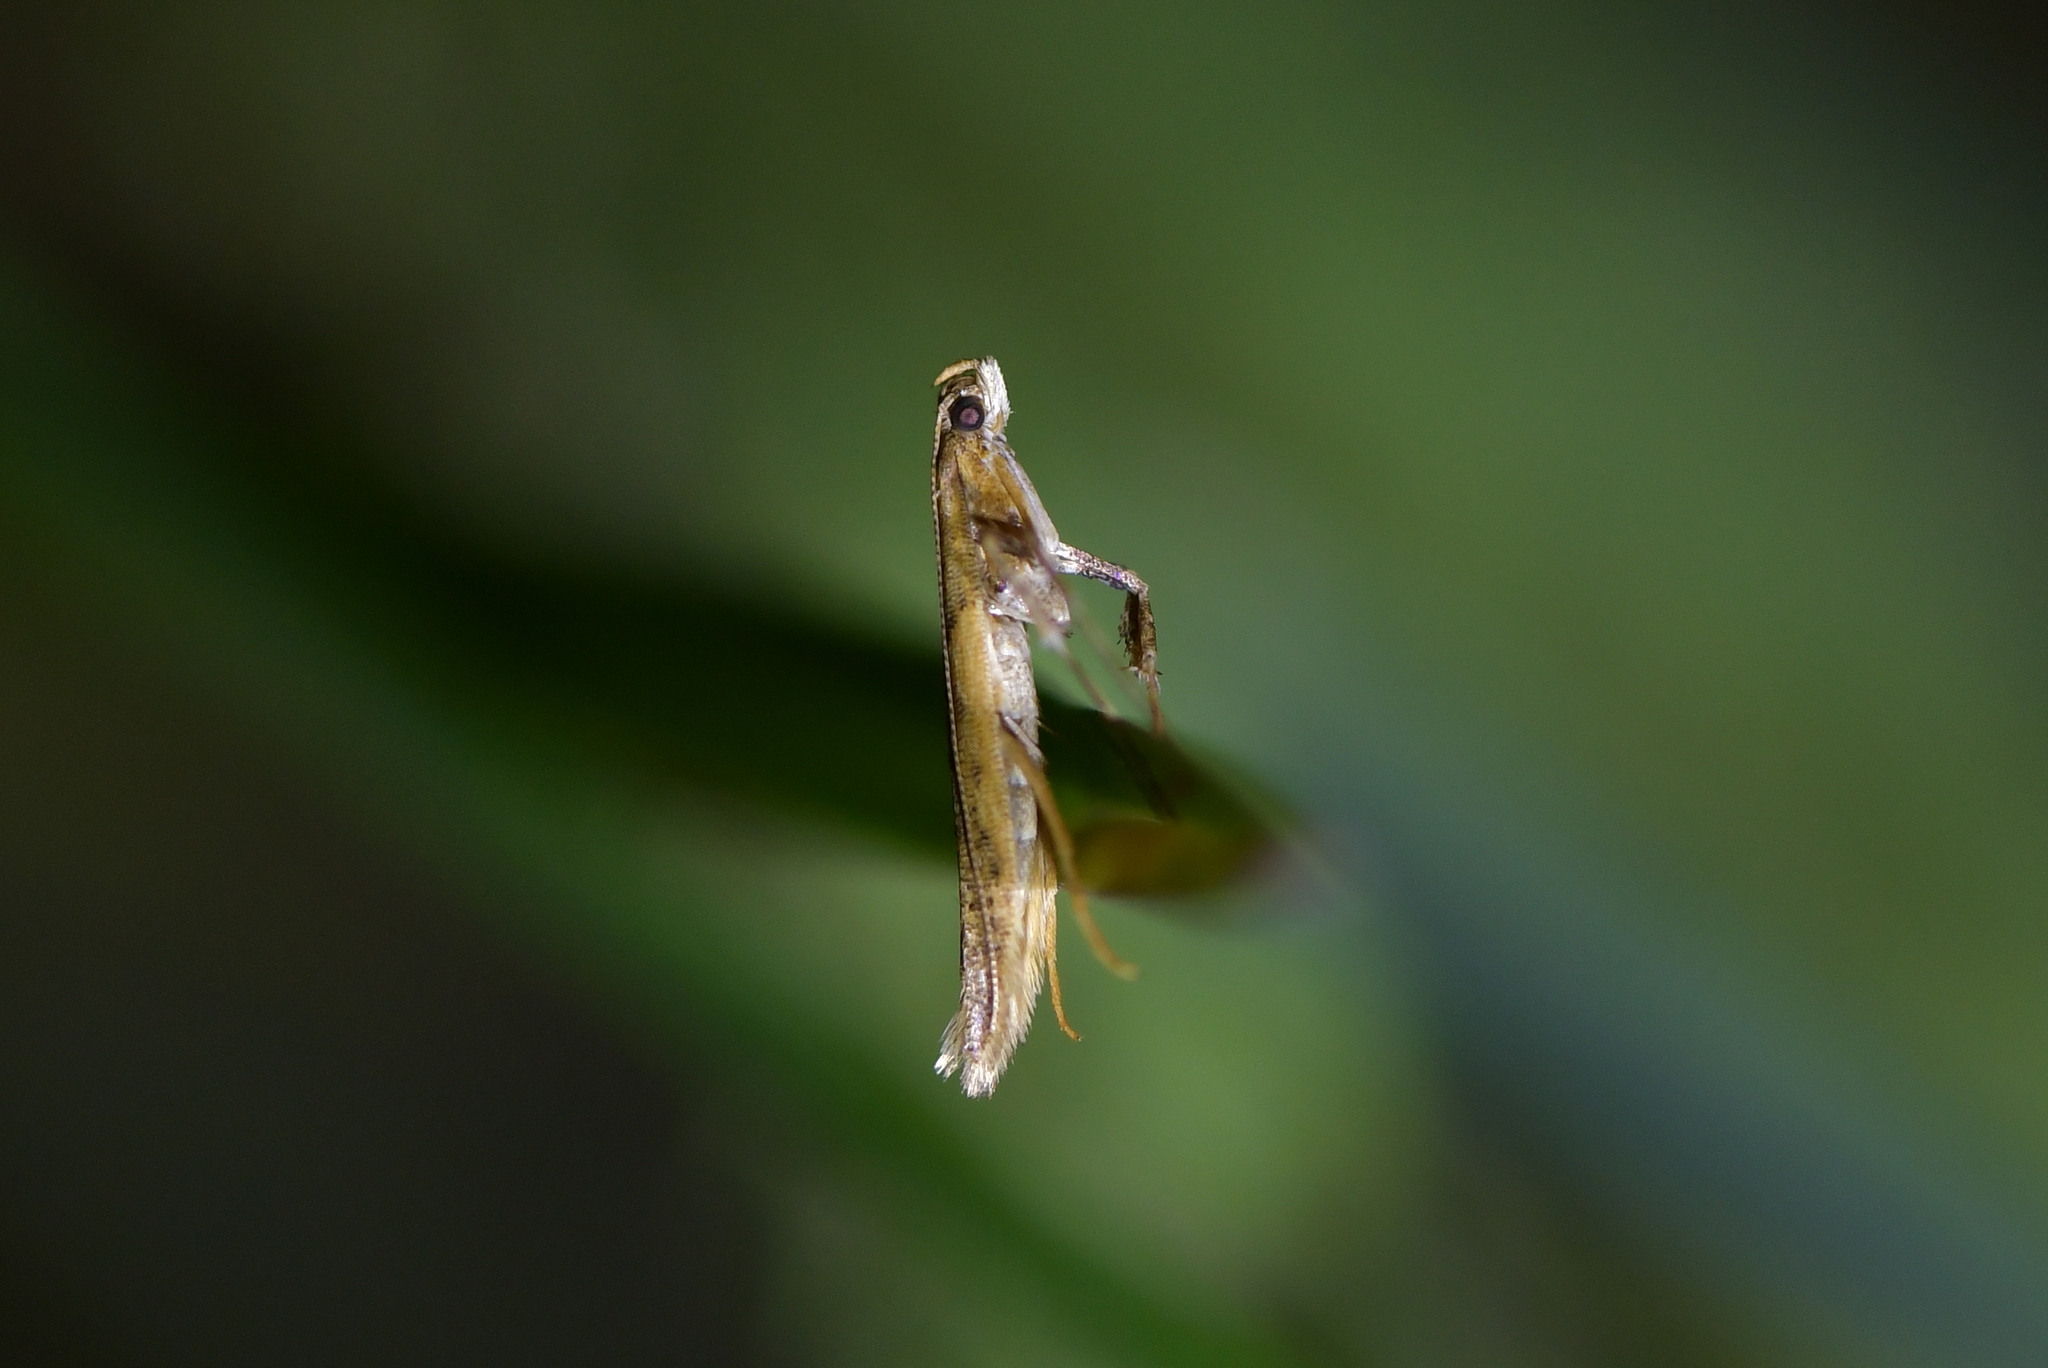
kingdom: Animalia
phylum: Arthropoda
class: Insecta
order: Lepidoptera
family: Gracillariidae
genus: Caloptilia
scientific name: Caloptilia linearis
